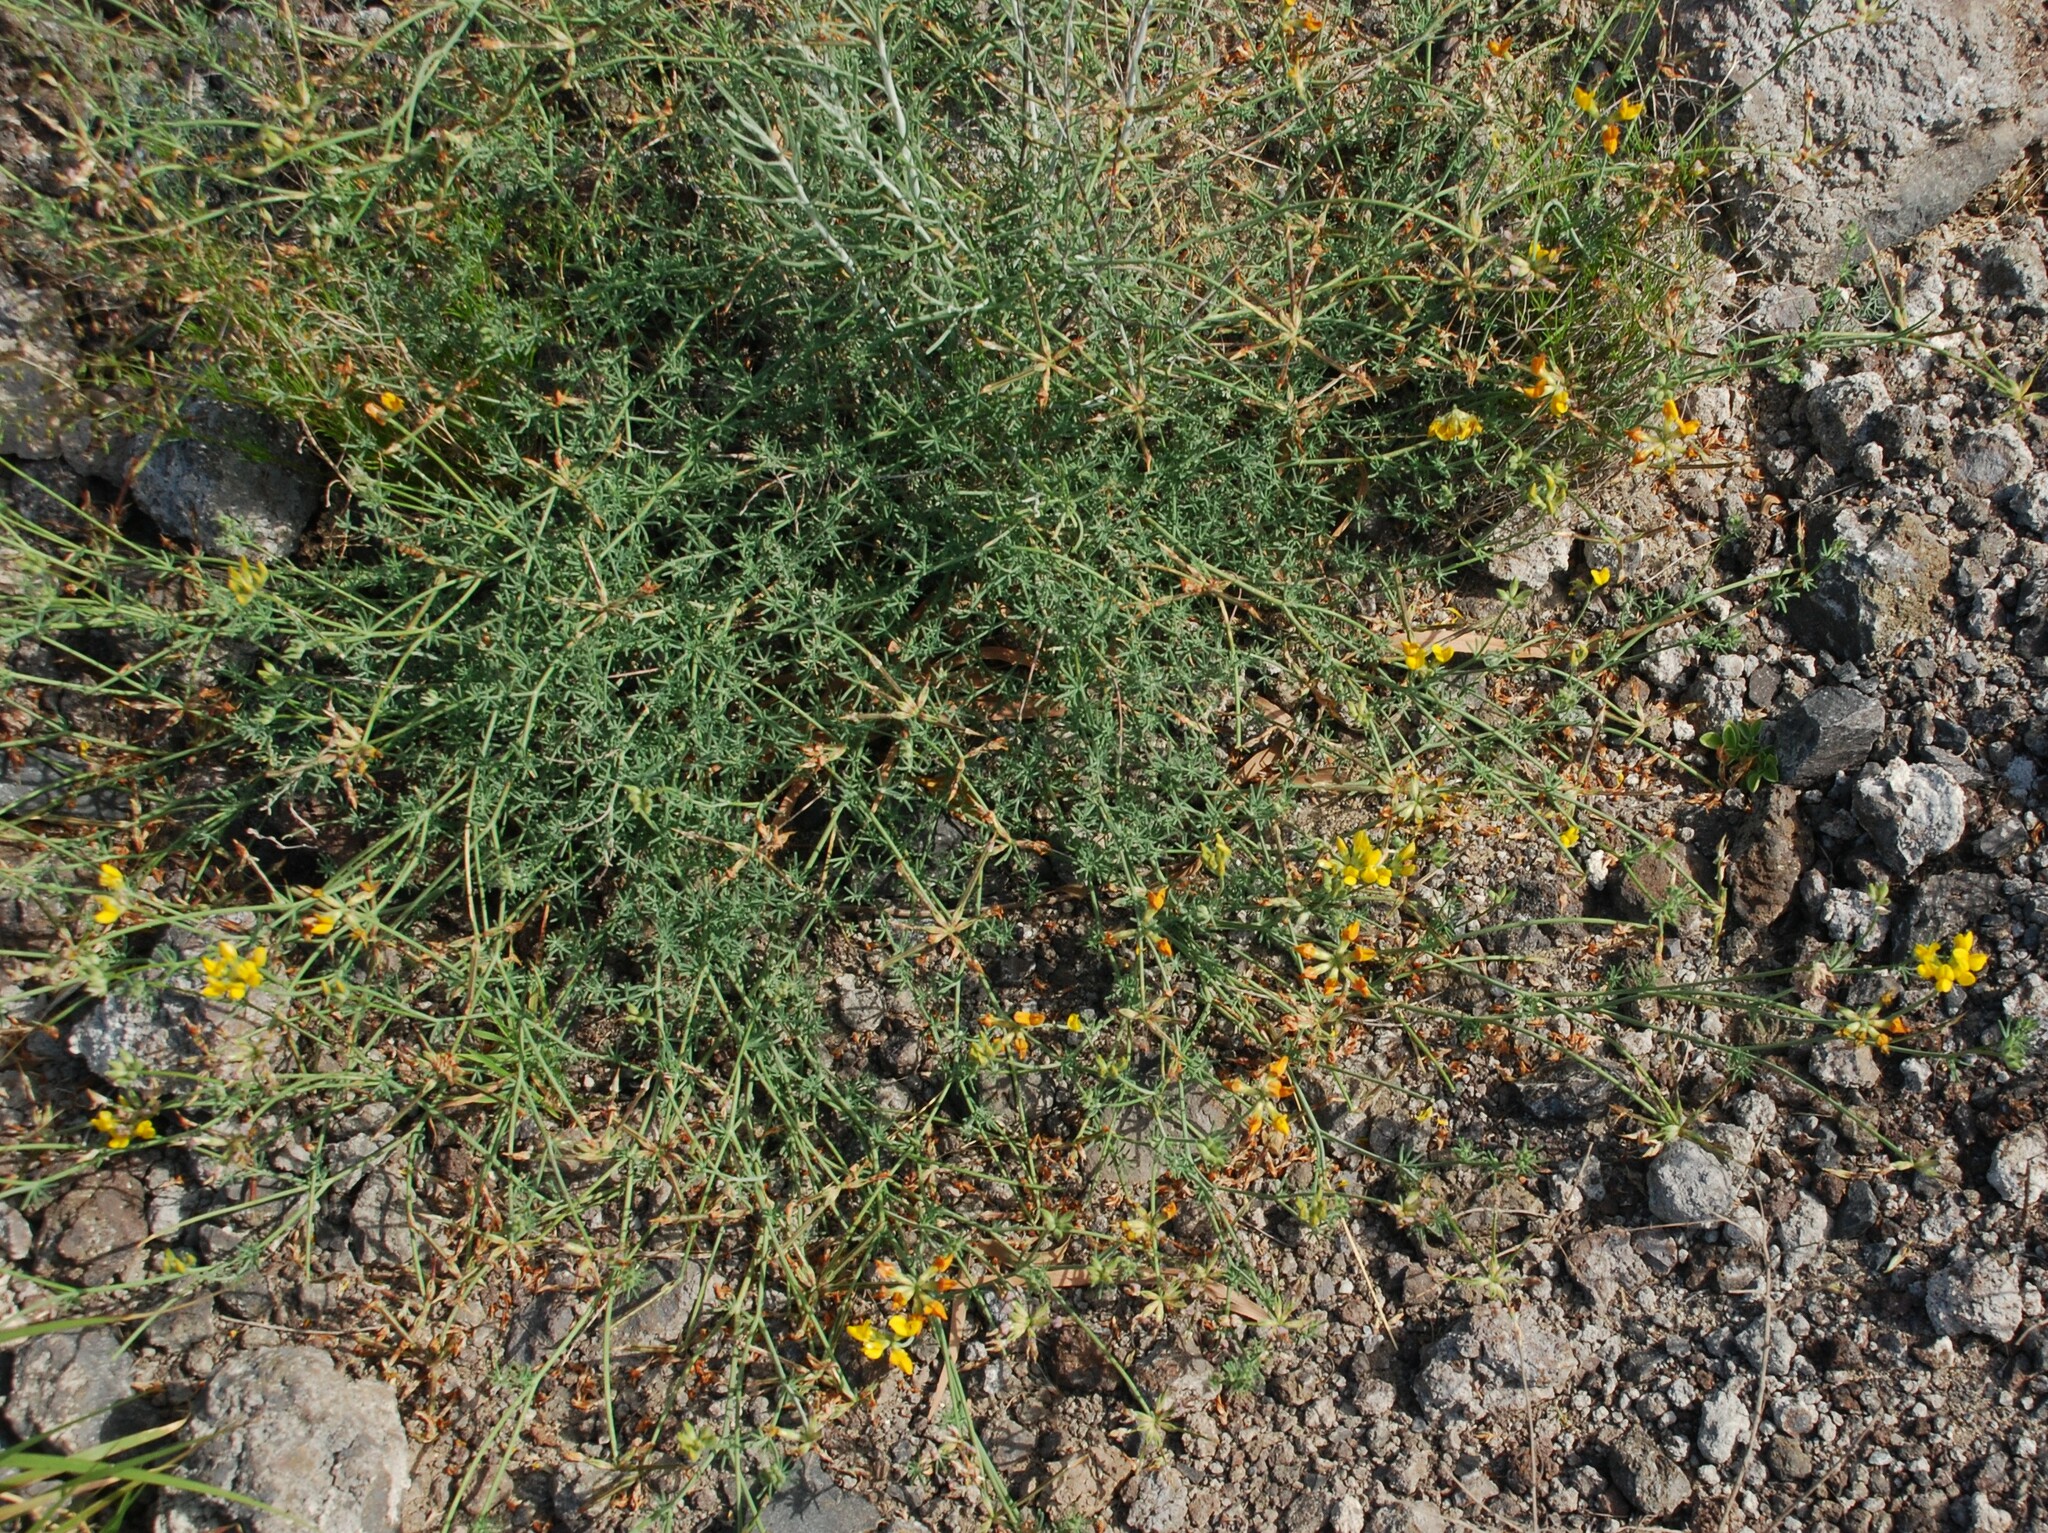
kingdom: Plantae
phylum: Tracheophyta
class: Magnoliopsida
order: Fabales
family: Fabaceae
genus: Lotus
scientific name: Lotus sessilifolius
